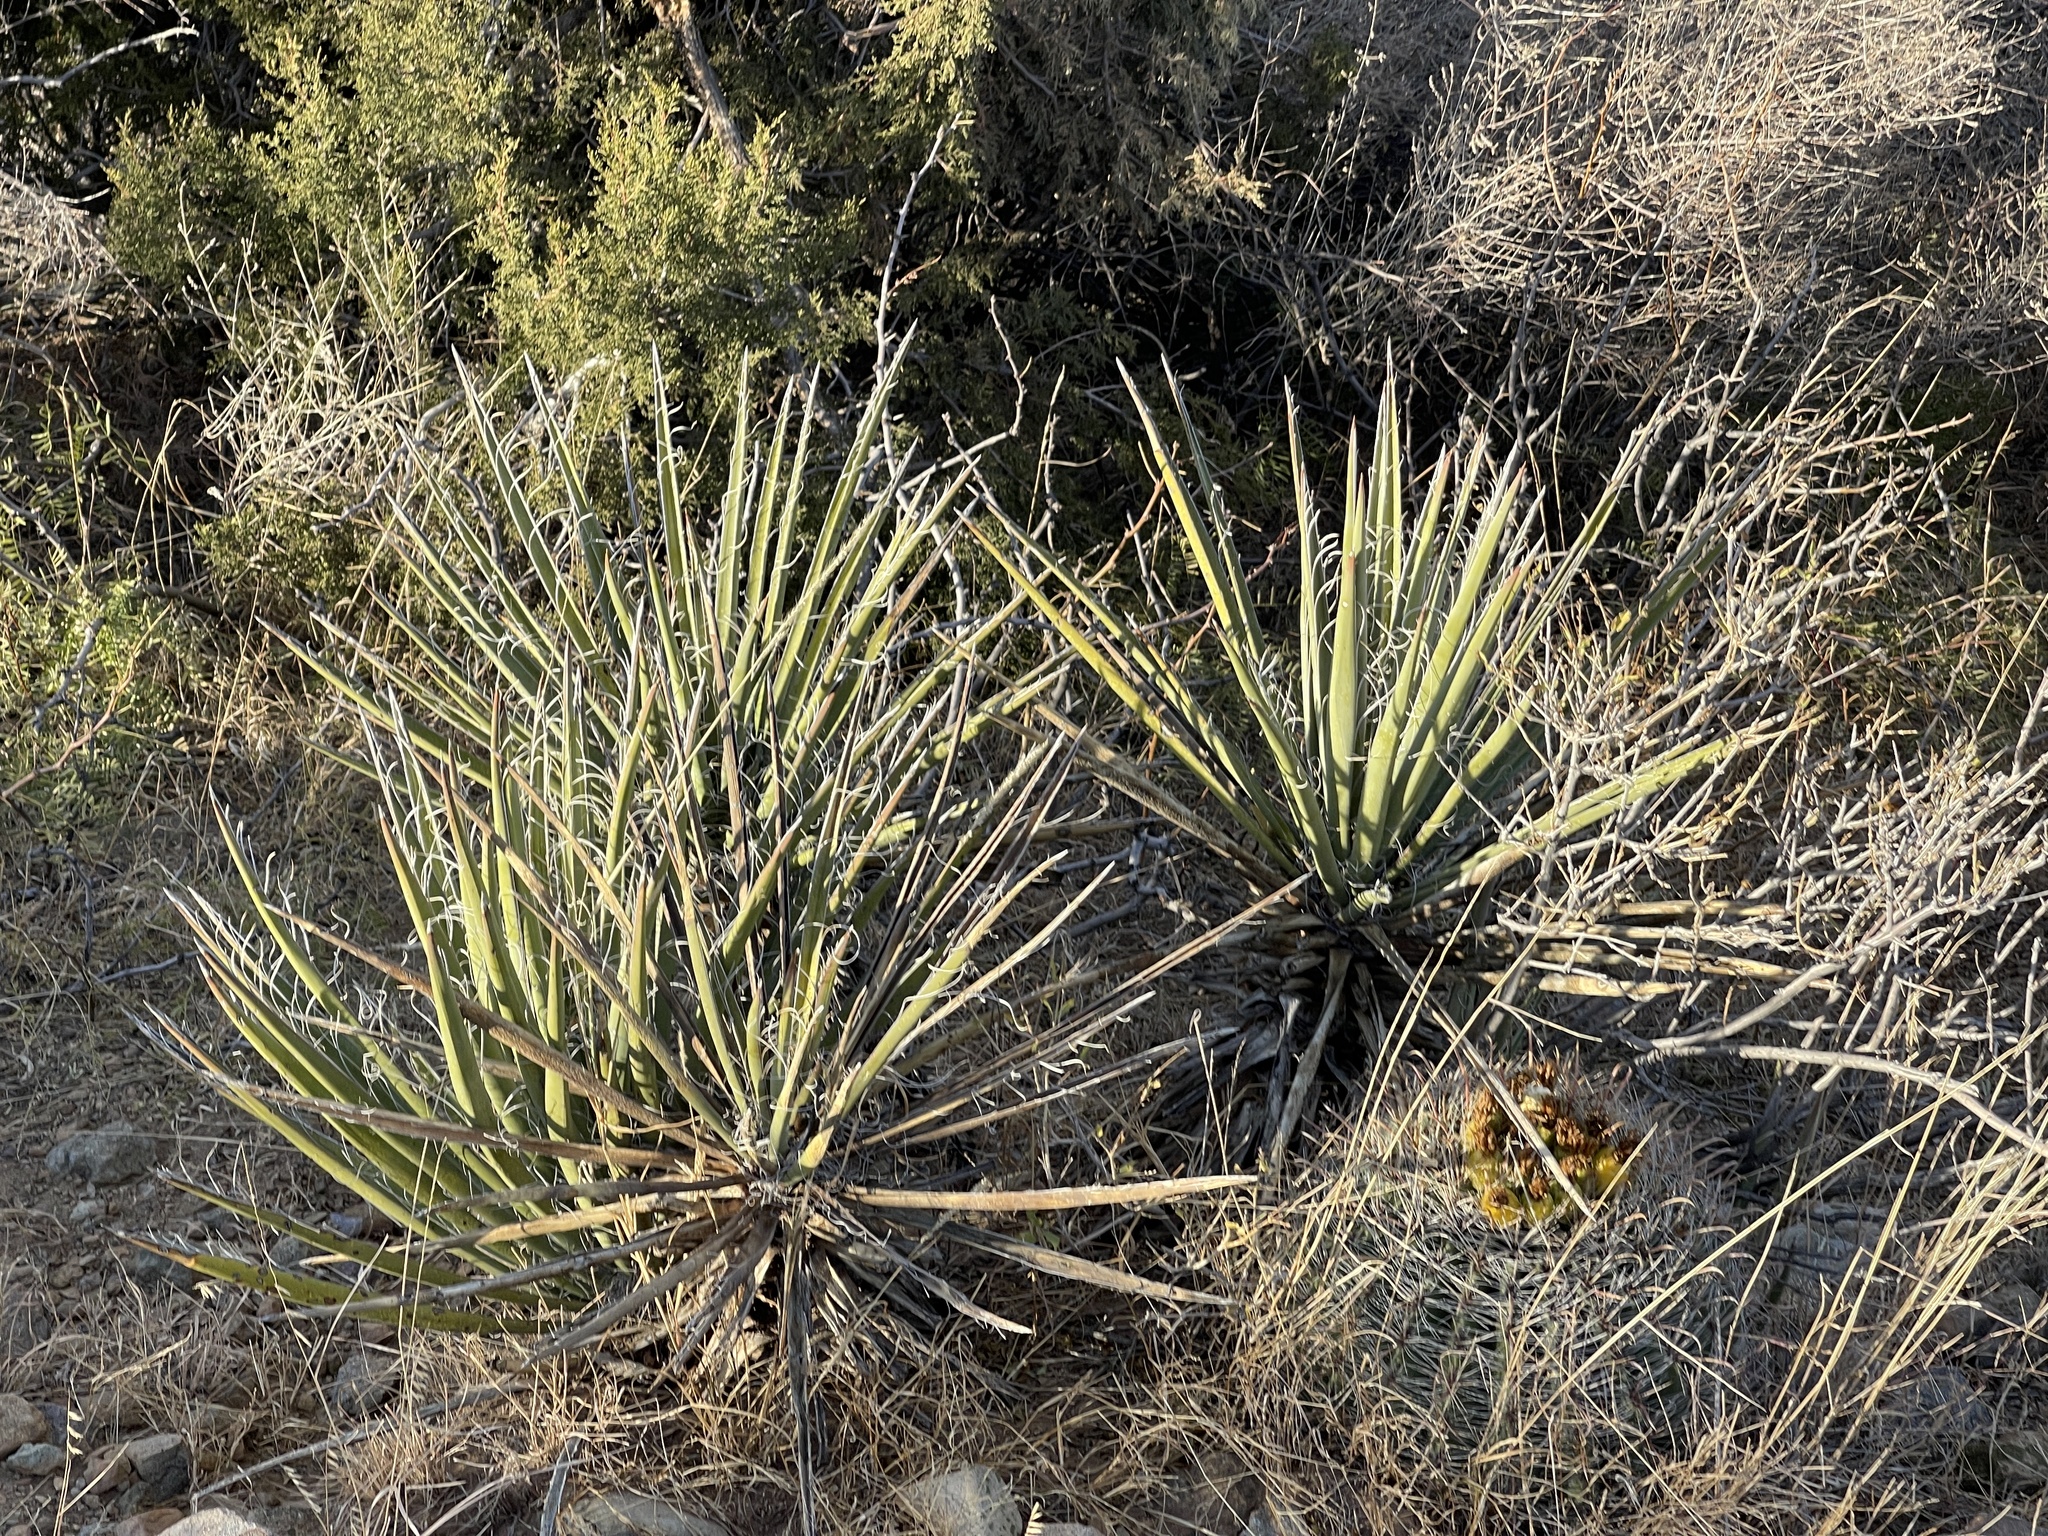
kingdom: Plantae
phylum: Tracheophyta
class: Liliopsida
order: Asparagales
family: Asparagaceae
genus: Yucca
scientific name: Yucca baccata
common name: Banana yucca
